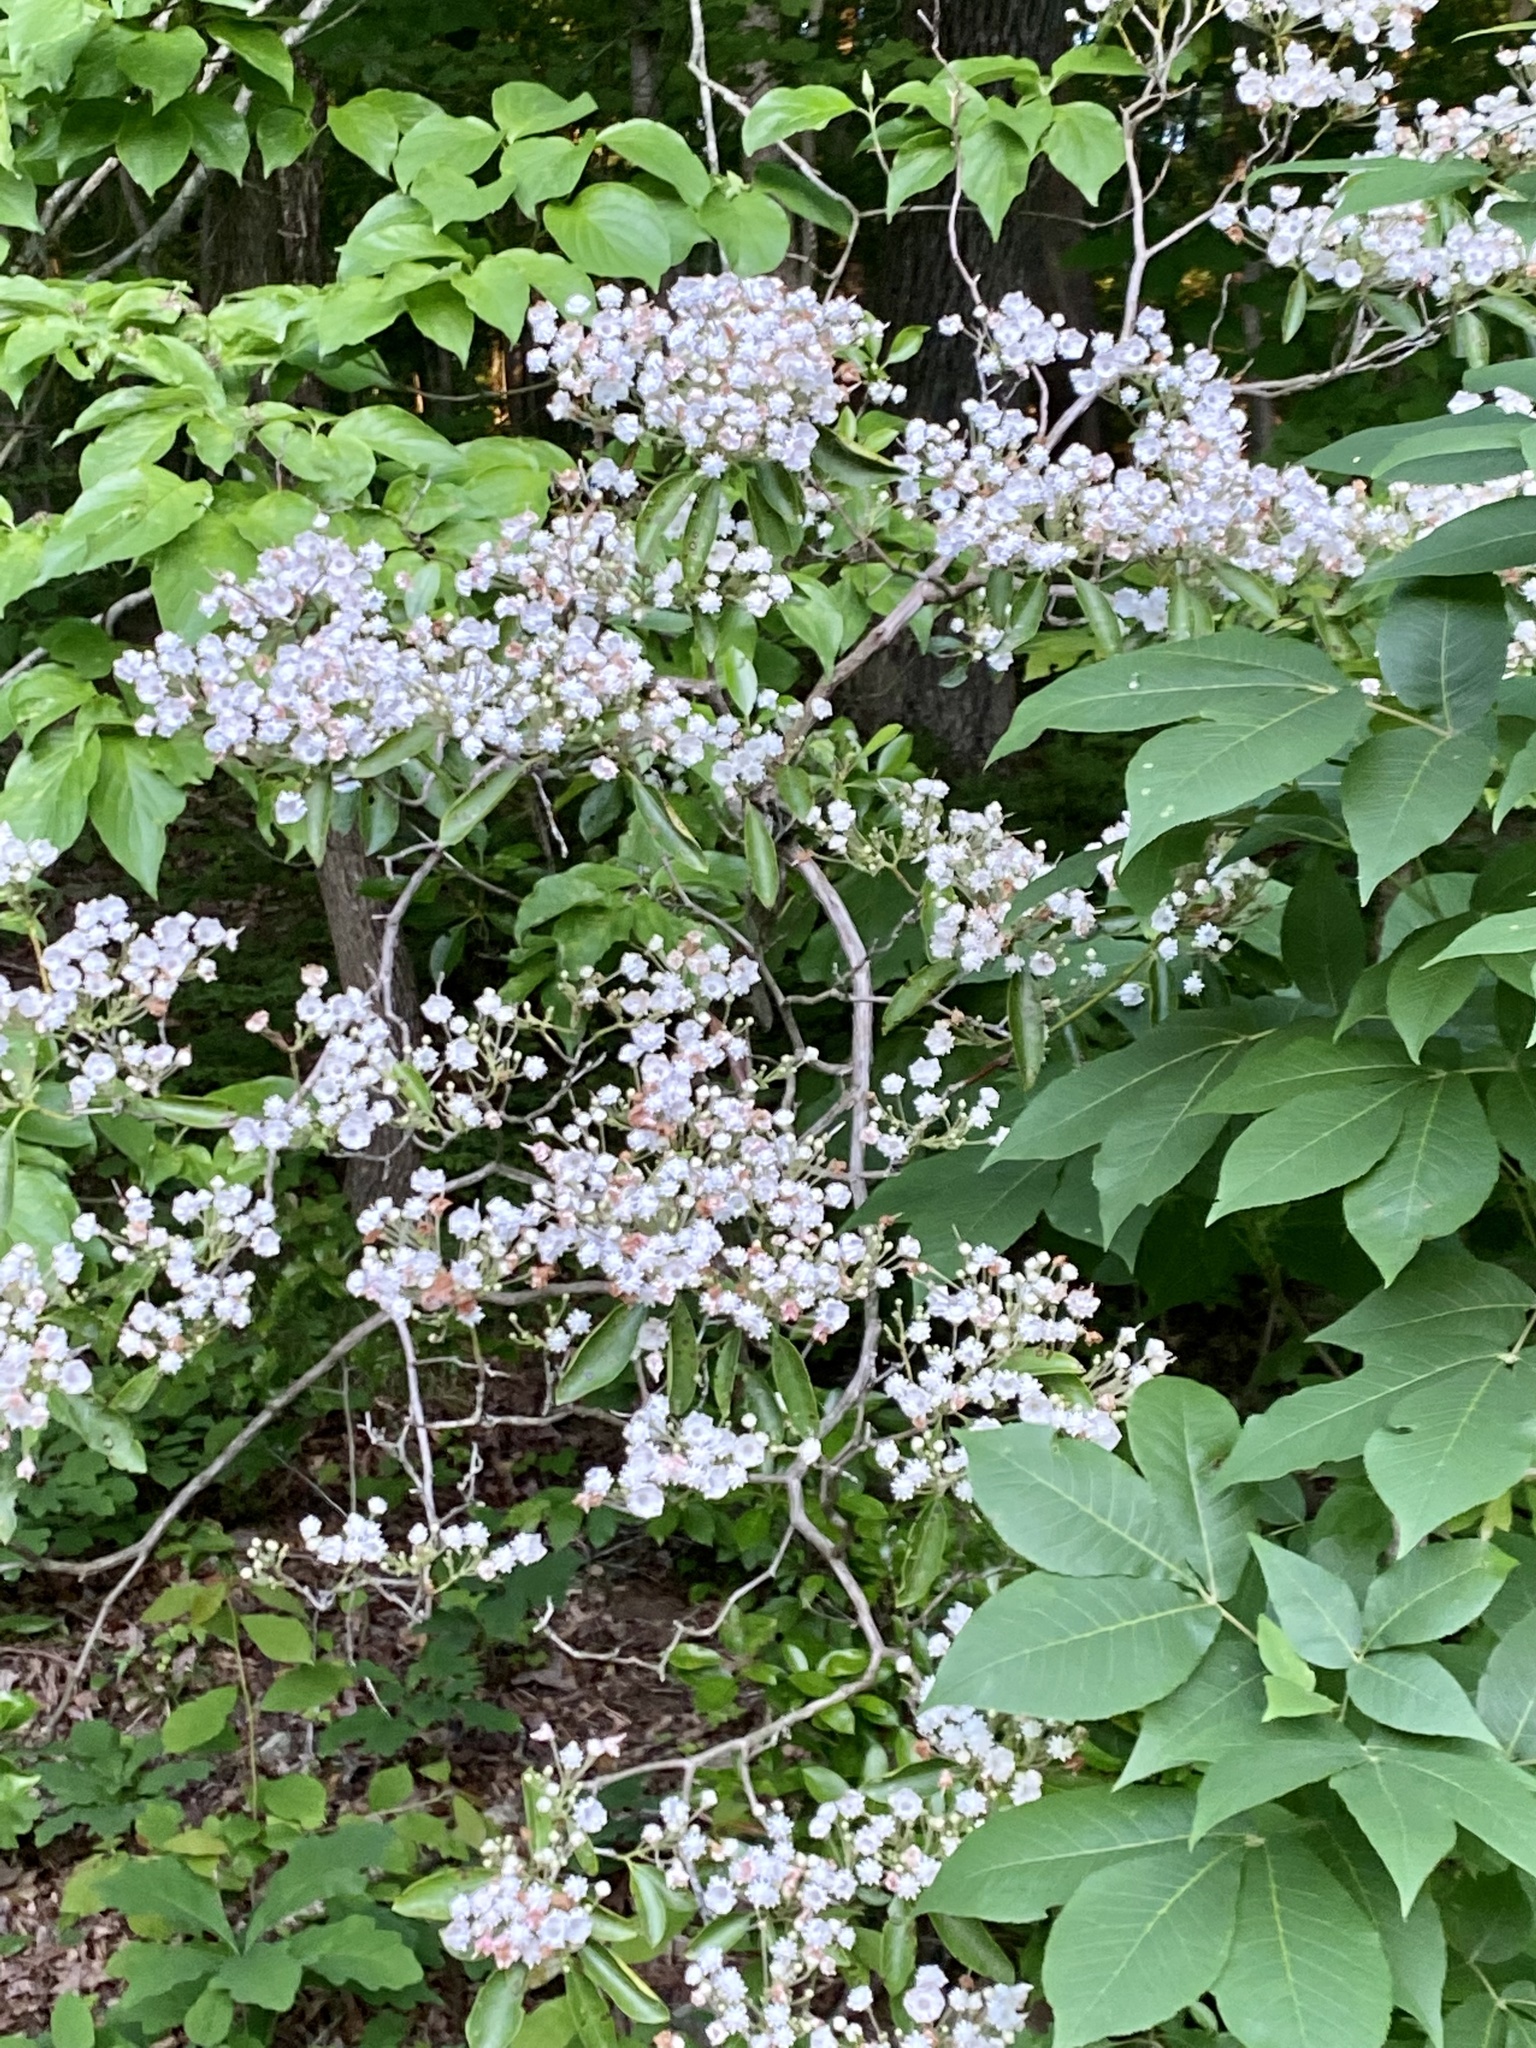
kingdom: Plantae
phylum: Tracheophyta
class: Magnoliopsida
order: Ericales
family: Ericaceae
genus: Kalmia
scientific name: Kalmia latifolia
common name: Mountain-laurel
